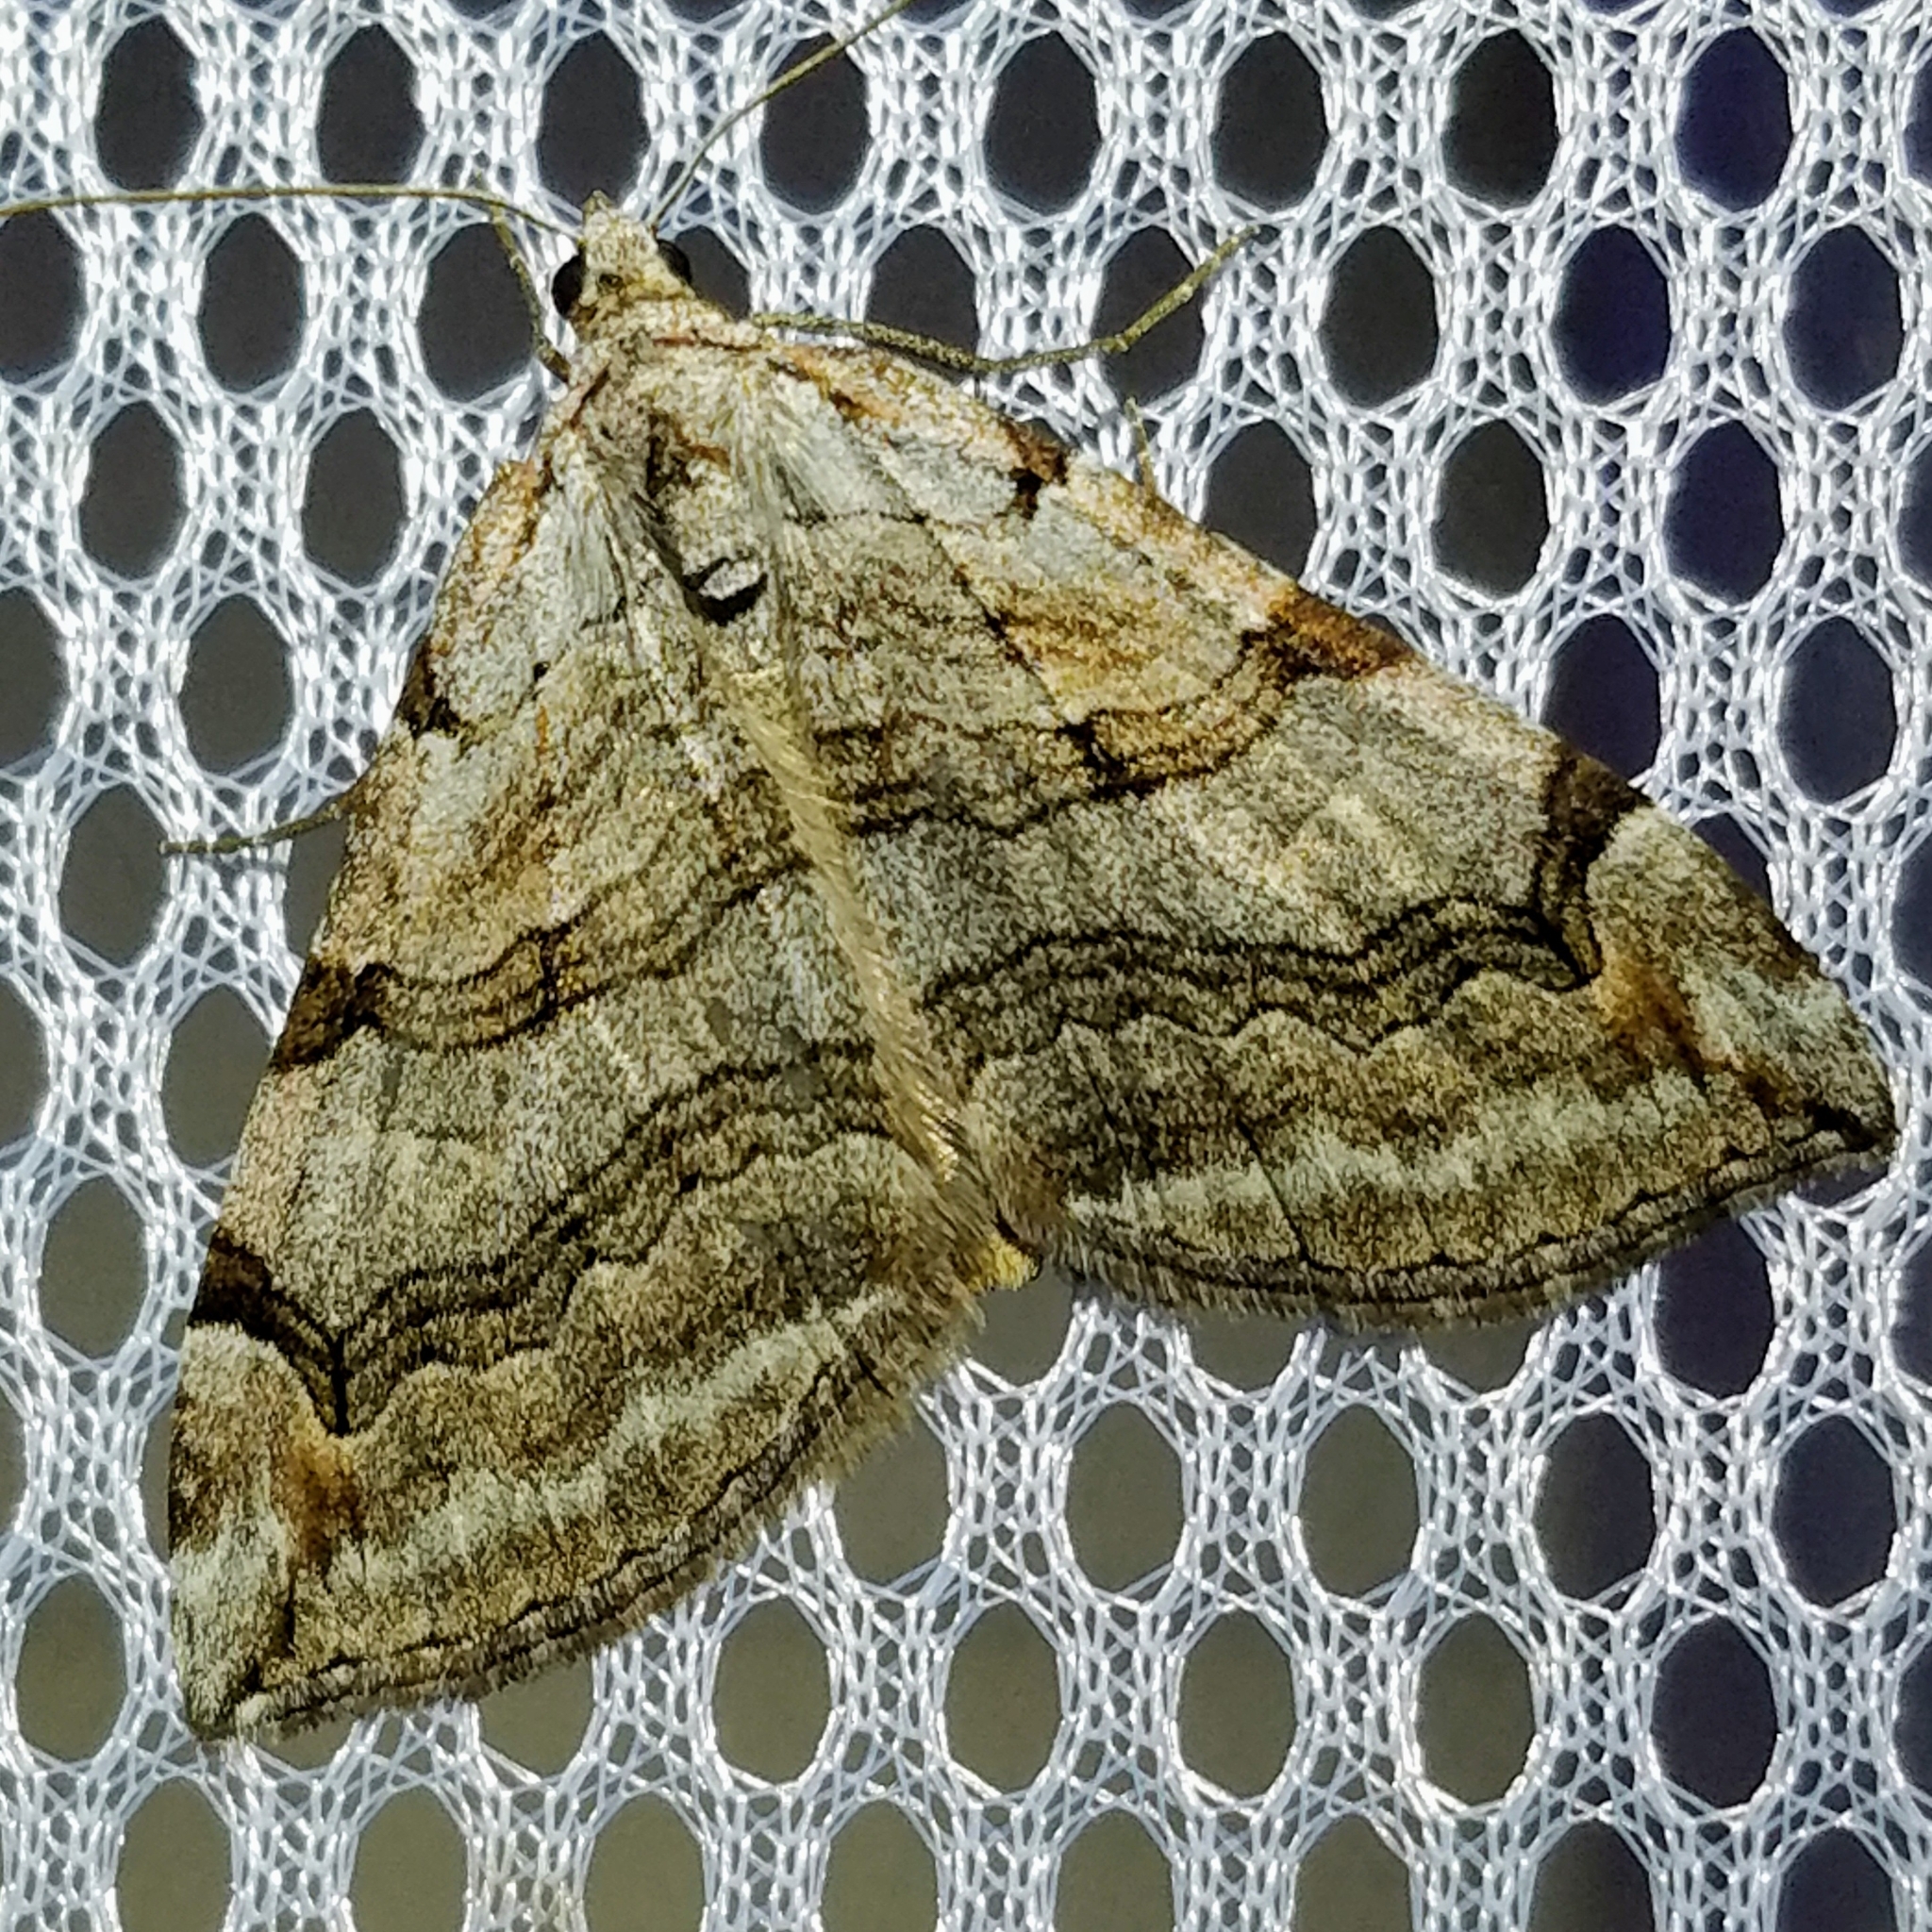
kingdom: Animalia
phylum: Arthropoda
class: Insecta
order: Lepidoptera
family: Geometridae
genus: Aplocera
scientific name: Aplocera plagiata
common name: Treble-bar
